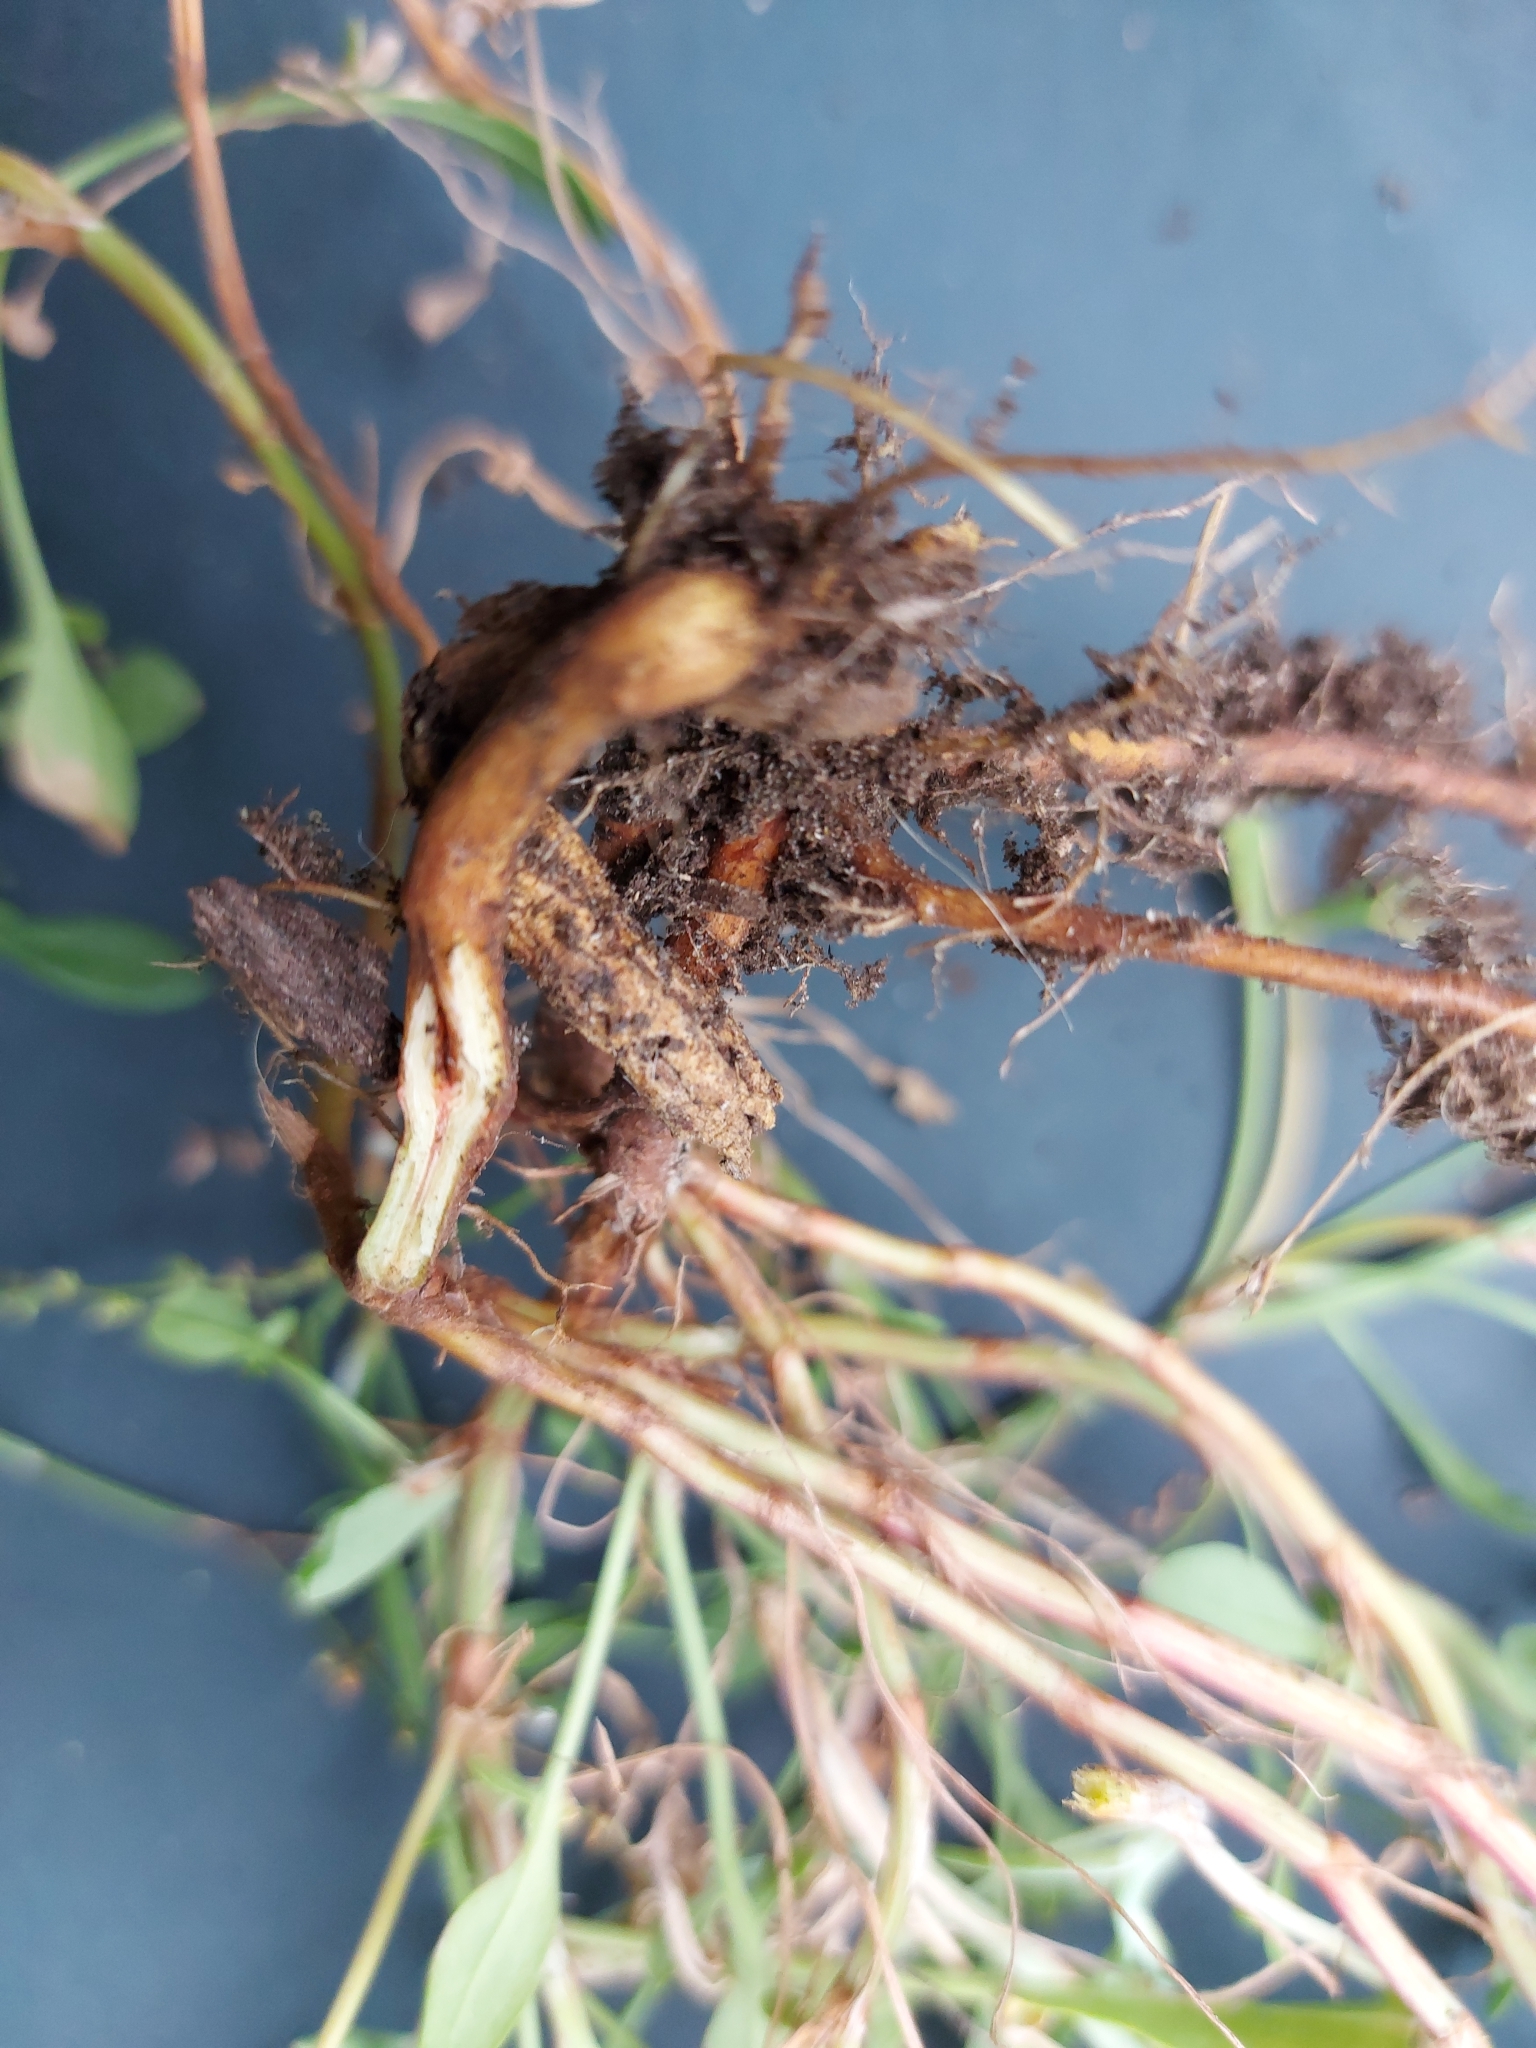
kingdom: Plantae
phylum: Tracheophyta
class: Magnoliopsida
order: Caryophyllales
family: Polygonaceae
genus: Rumex
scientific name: Rumex acetosella
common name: Common sheep sorrel
